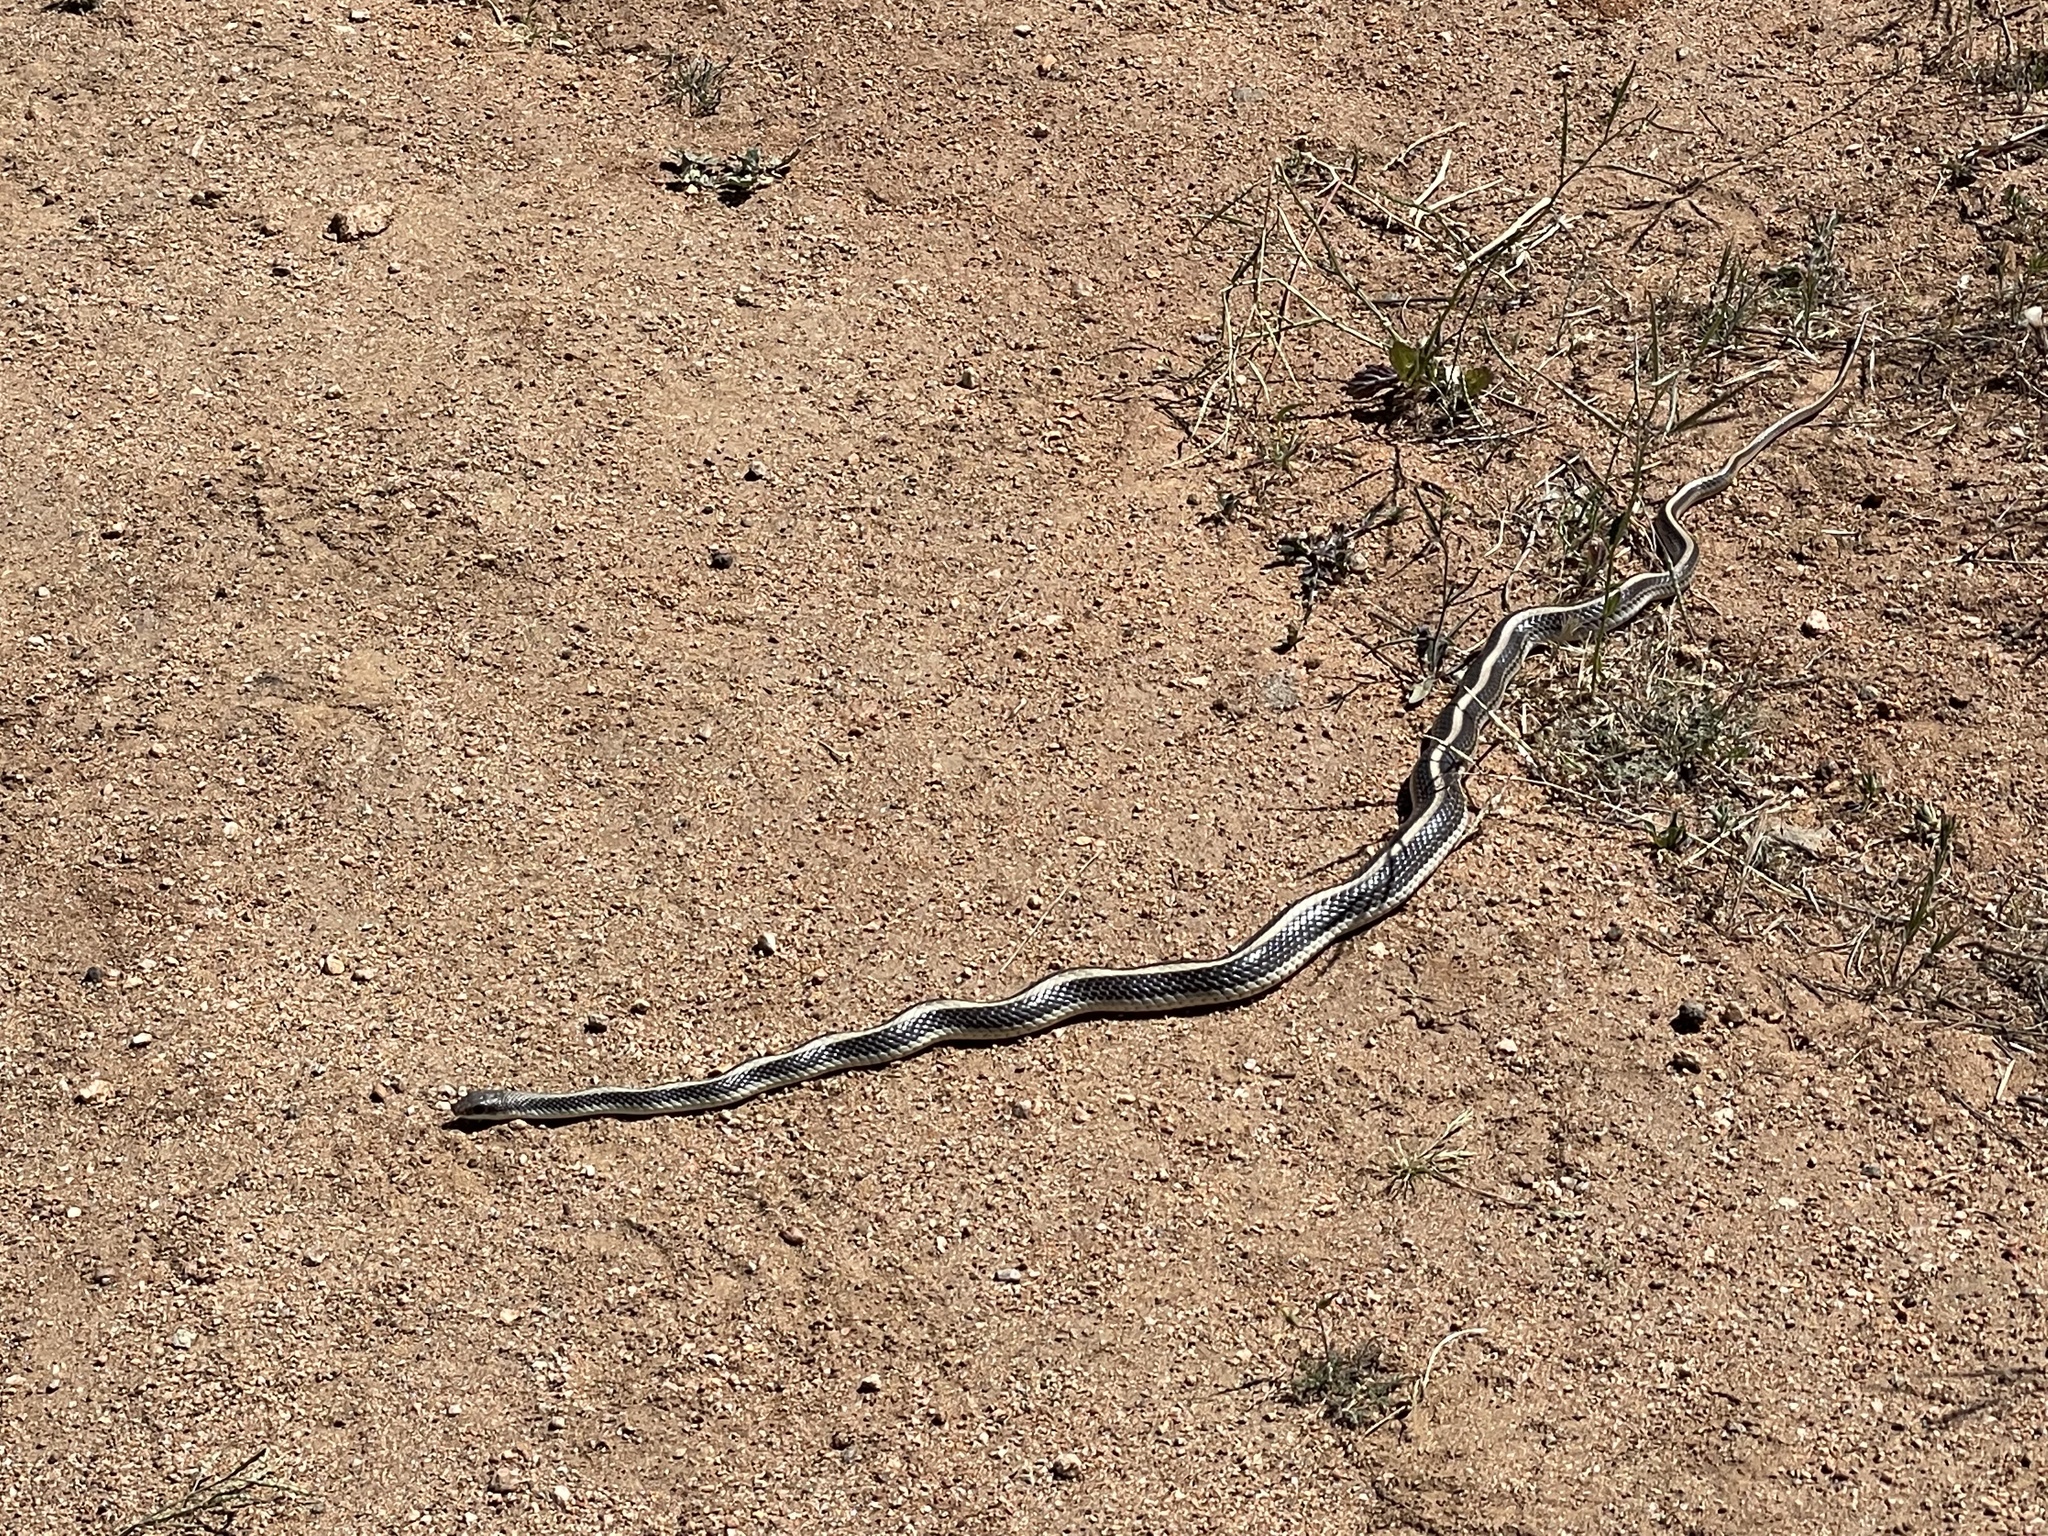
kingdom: Animalia
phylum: Chordata
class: Squamata
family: Colubridae
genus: Salvadora
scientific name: Salvadora hexalepis
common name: Western patchnose snake
